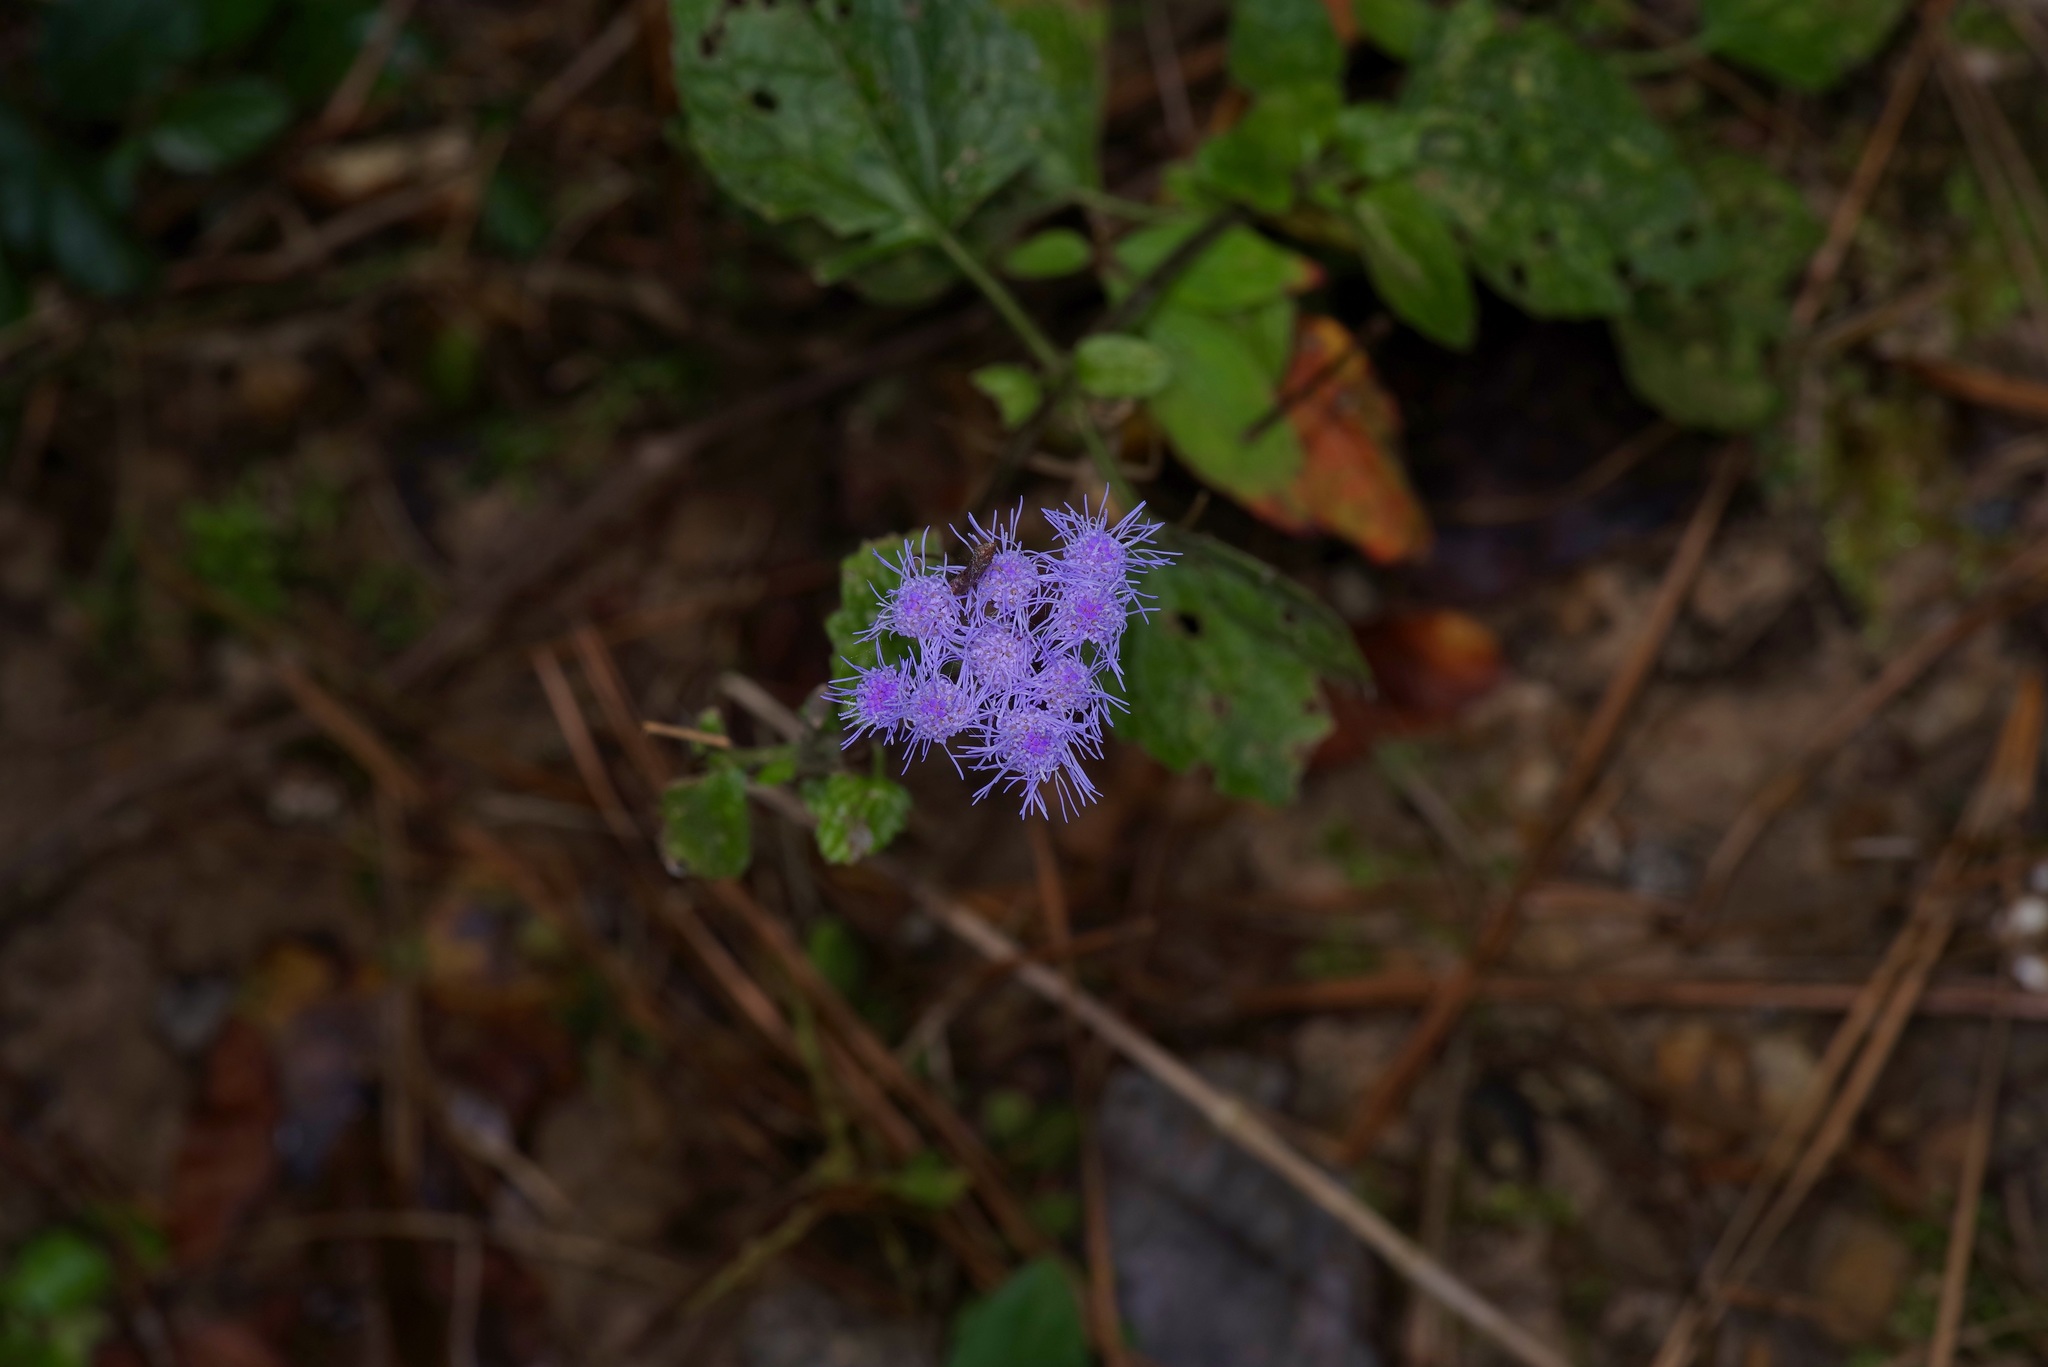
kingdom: Plantae
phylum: Tracheophyta
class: Magnoliopsida
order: Asterales
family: Asteraceae
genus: Conoclinium
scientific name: Conoclinium coelestinum
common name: Blue mistflower
